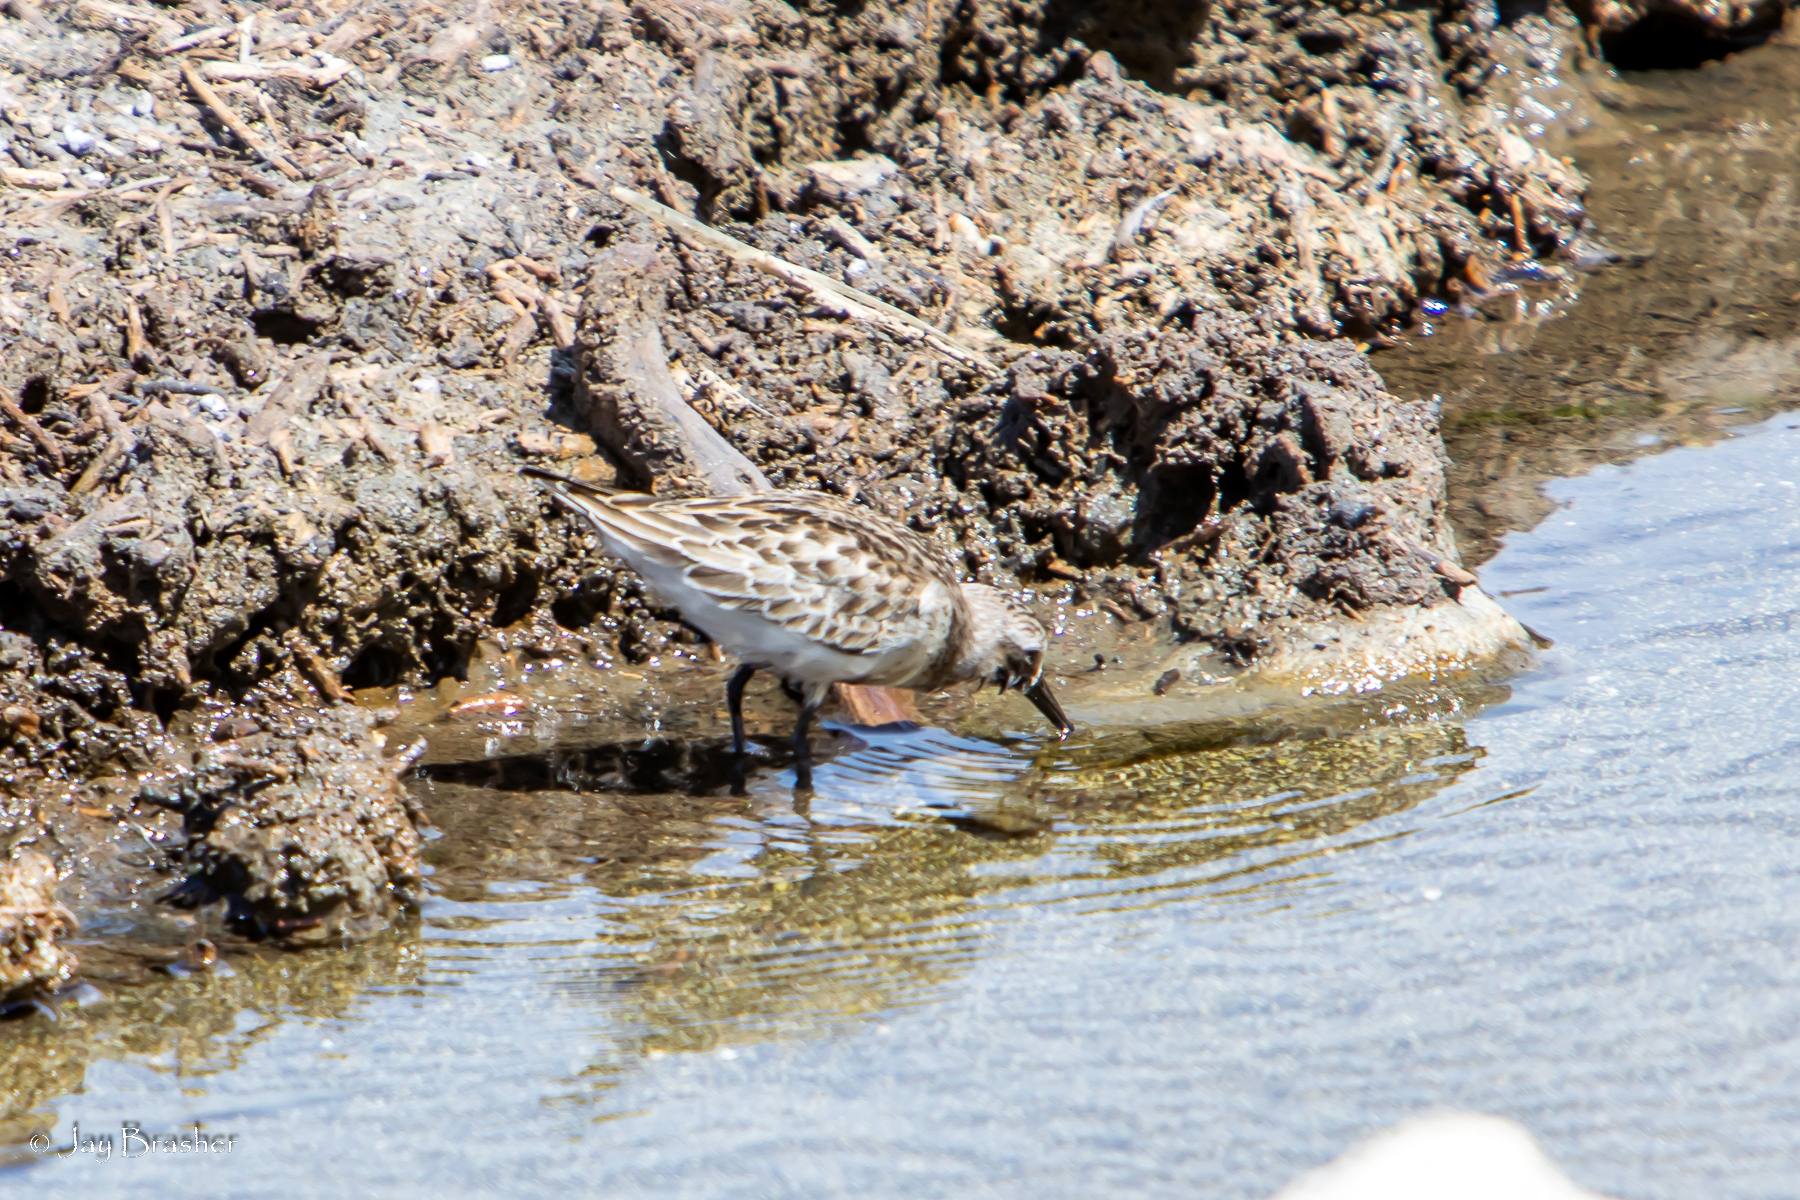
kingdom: Animalia
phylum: Chordata
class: Aves
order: Charadriiformes
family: Scolopacidae
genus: Calidris
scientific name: Calidris pusilla
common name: Semipalmated sandpiper
